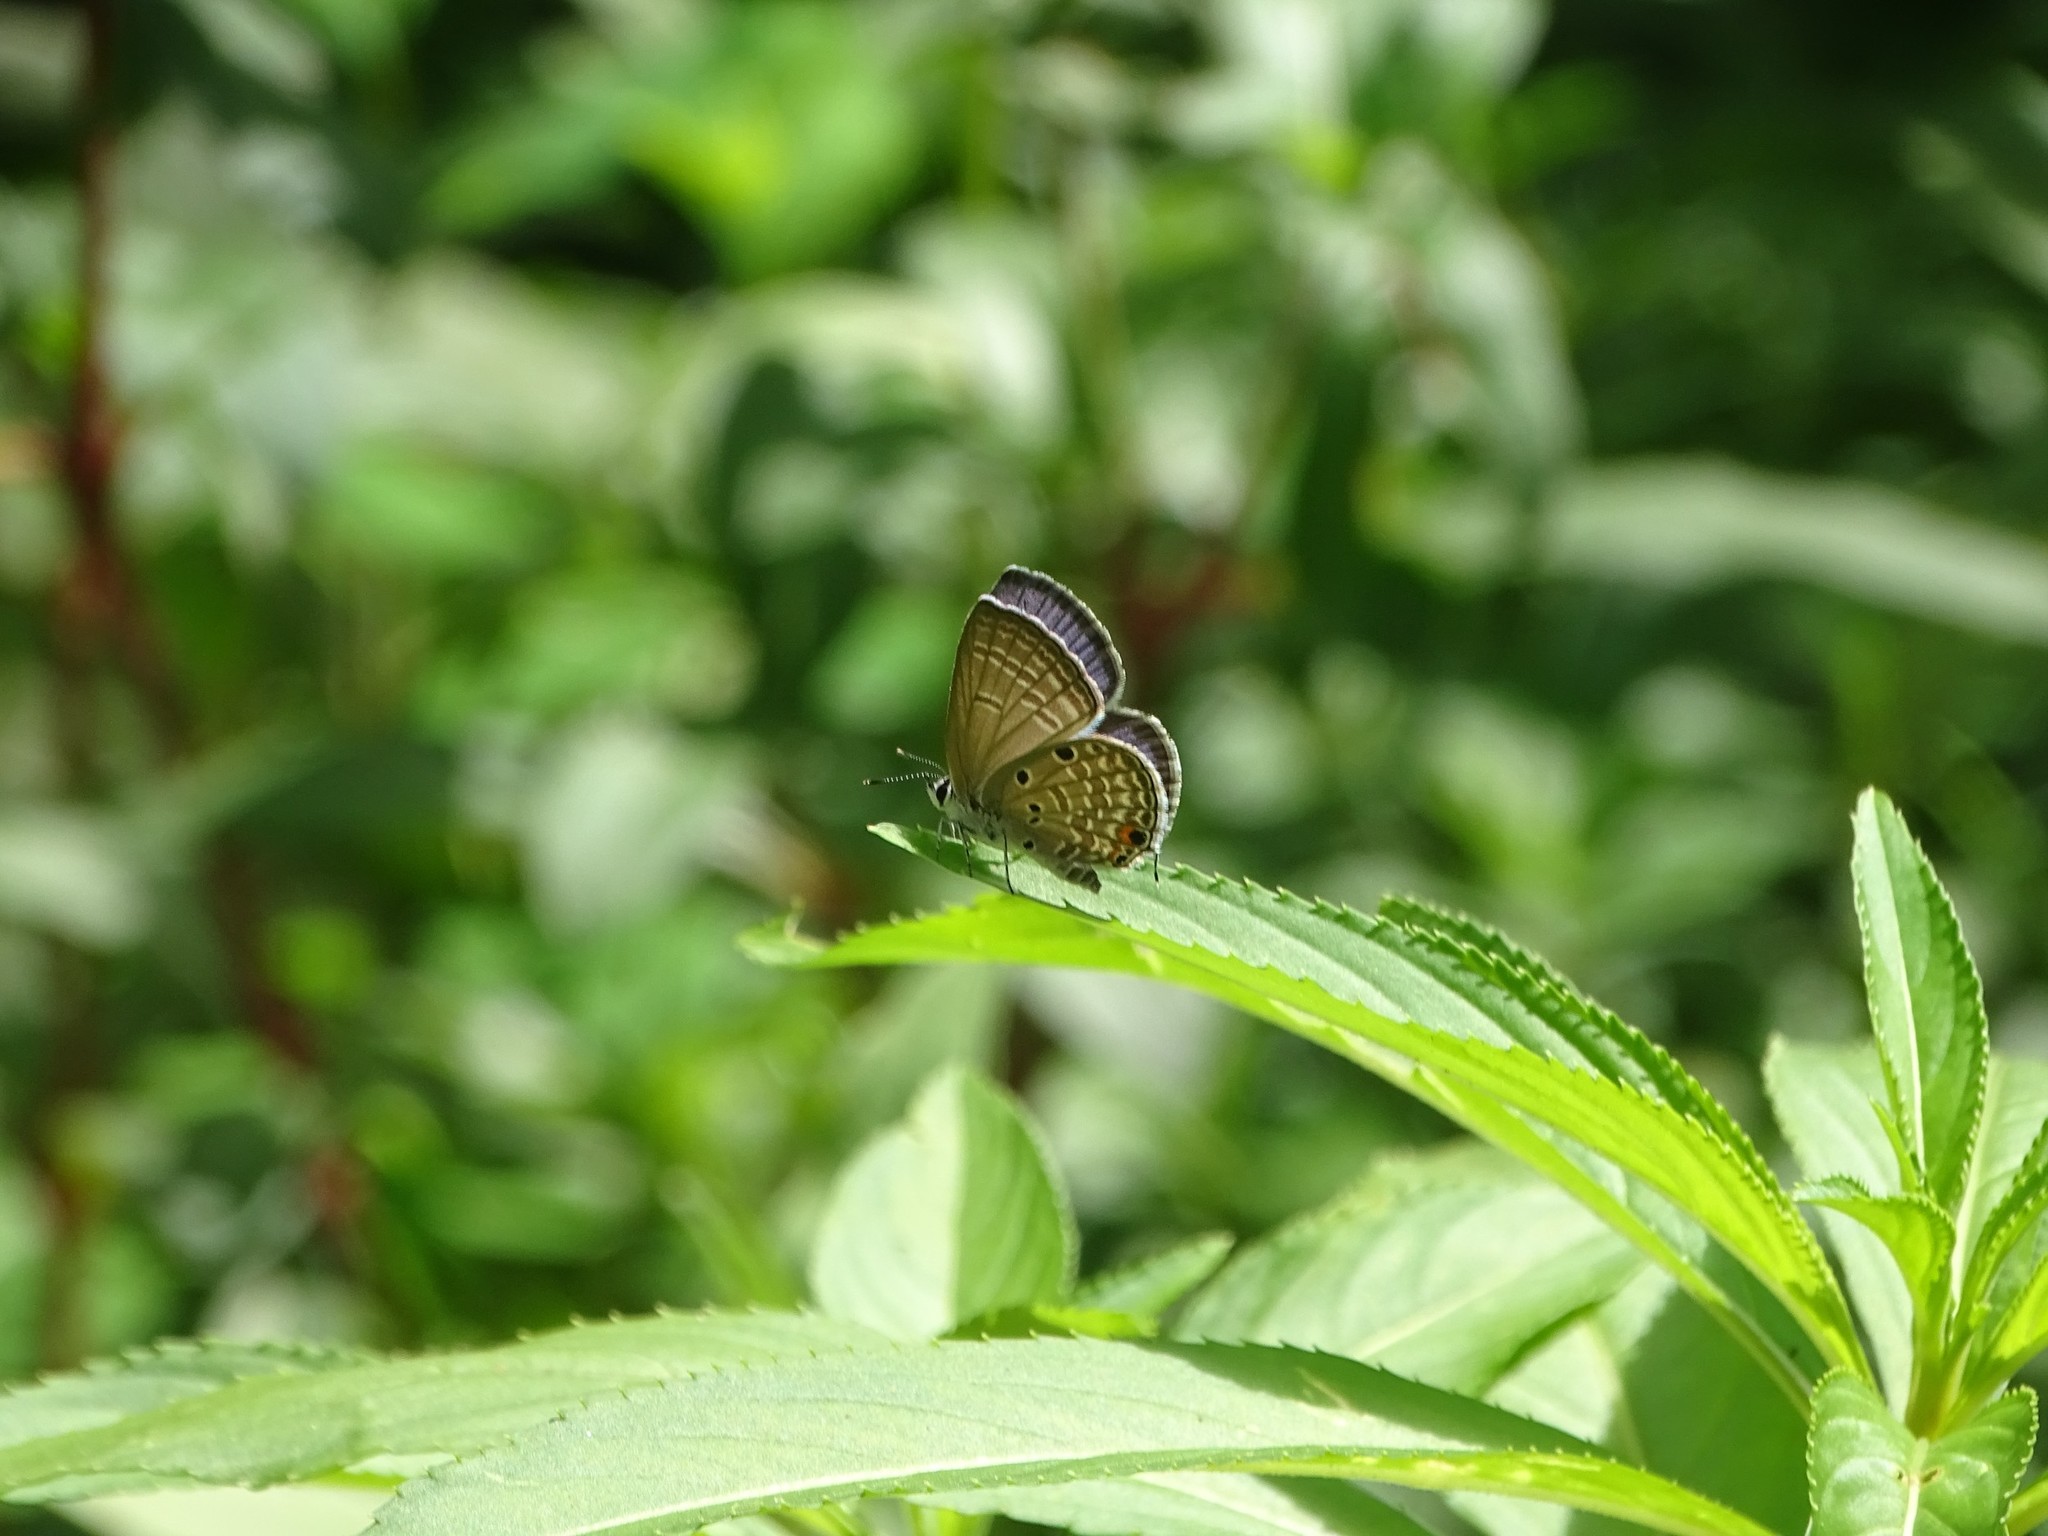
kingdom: Animalia
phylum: Arthropoda
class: Insecta
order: Lepidoptera
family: Lycaenidae
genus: Luthrodes
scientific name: Luthrodes pandava
